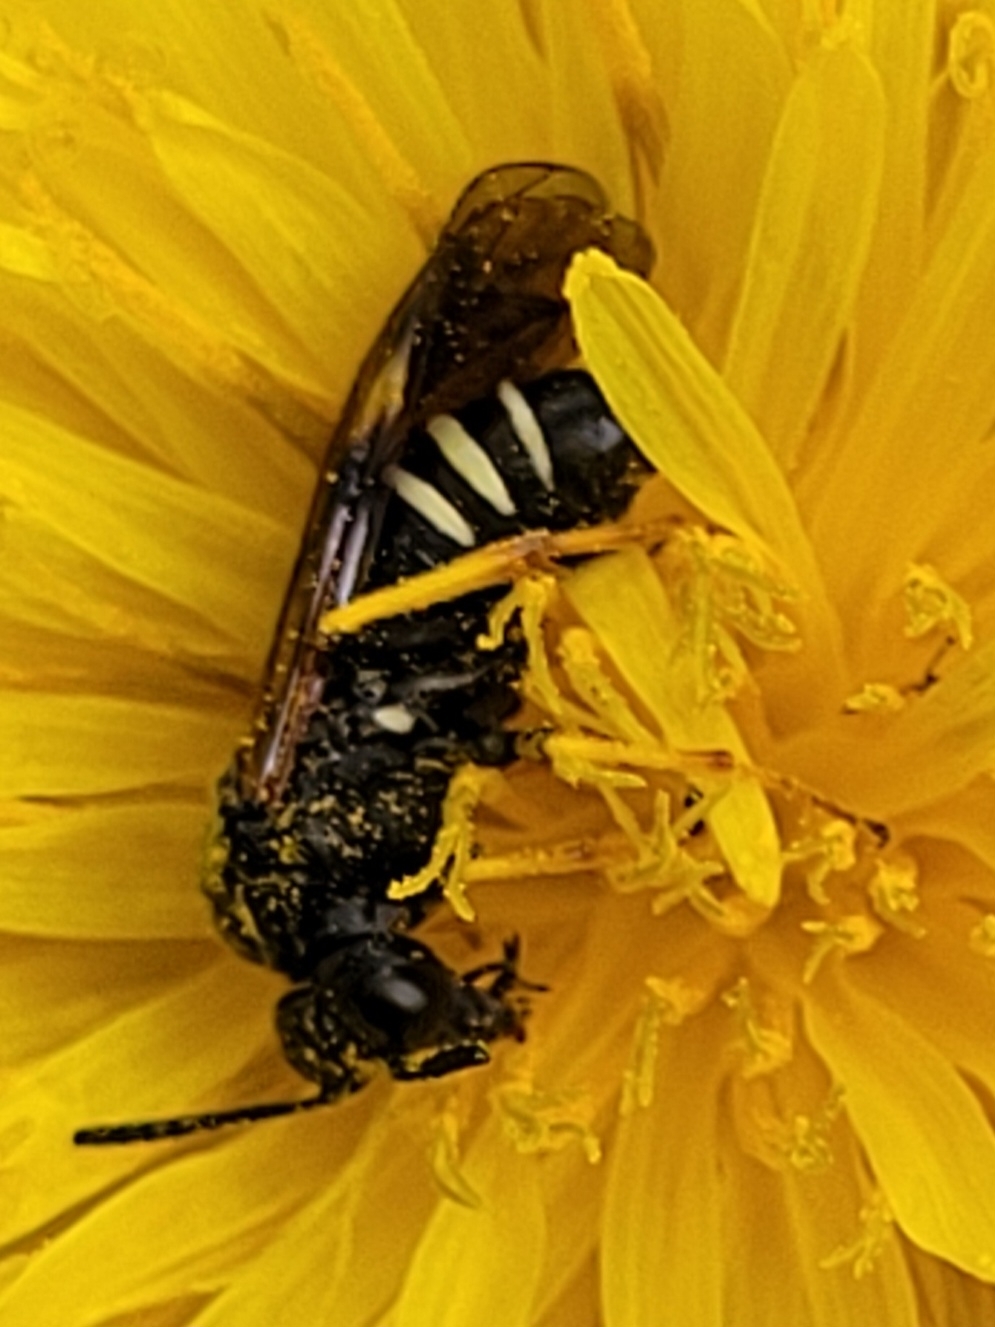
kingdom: Animalia
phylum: Arthropoda
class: Insecta
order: Hymenoptera
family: Tenthredinidae
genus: Tenthredo
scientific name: Tenthredo koehleri
